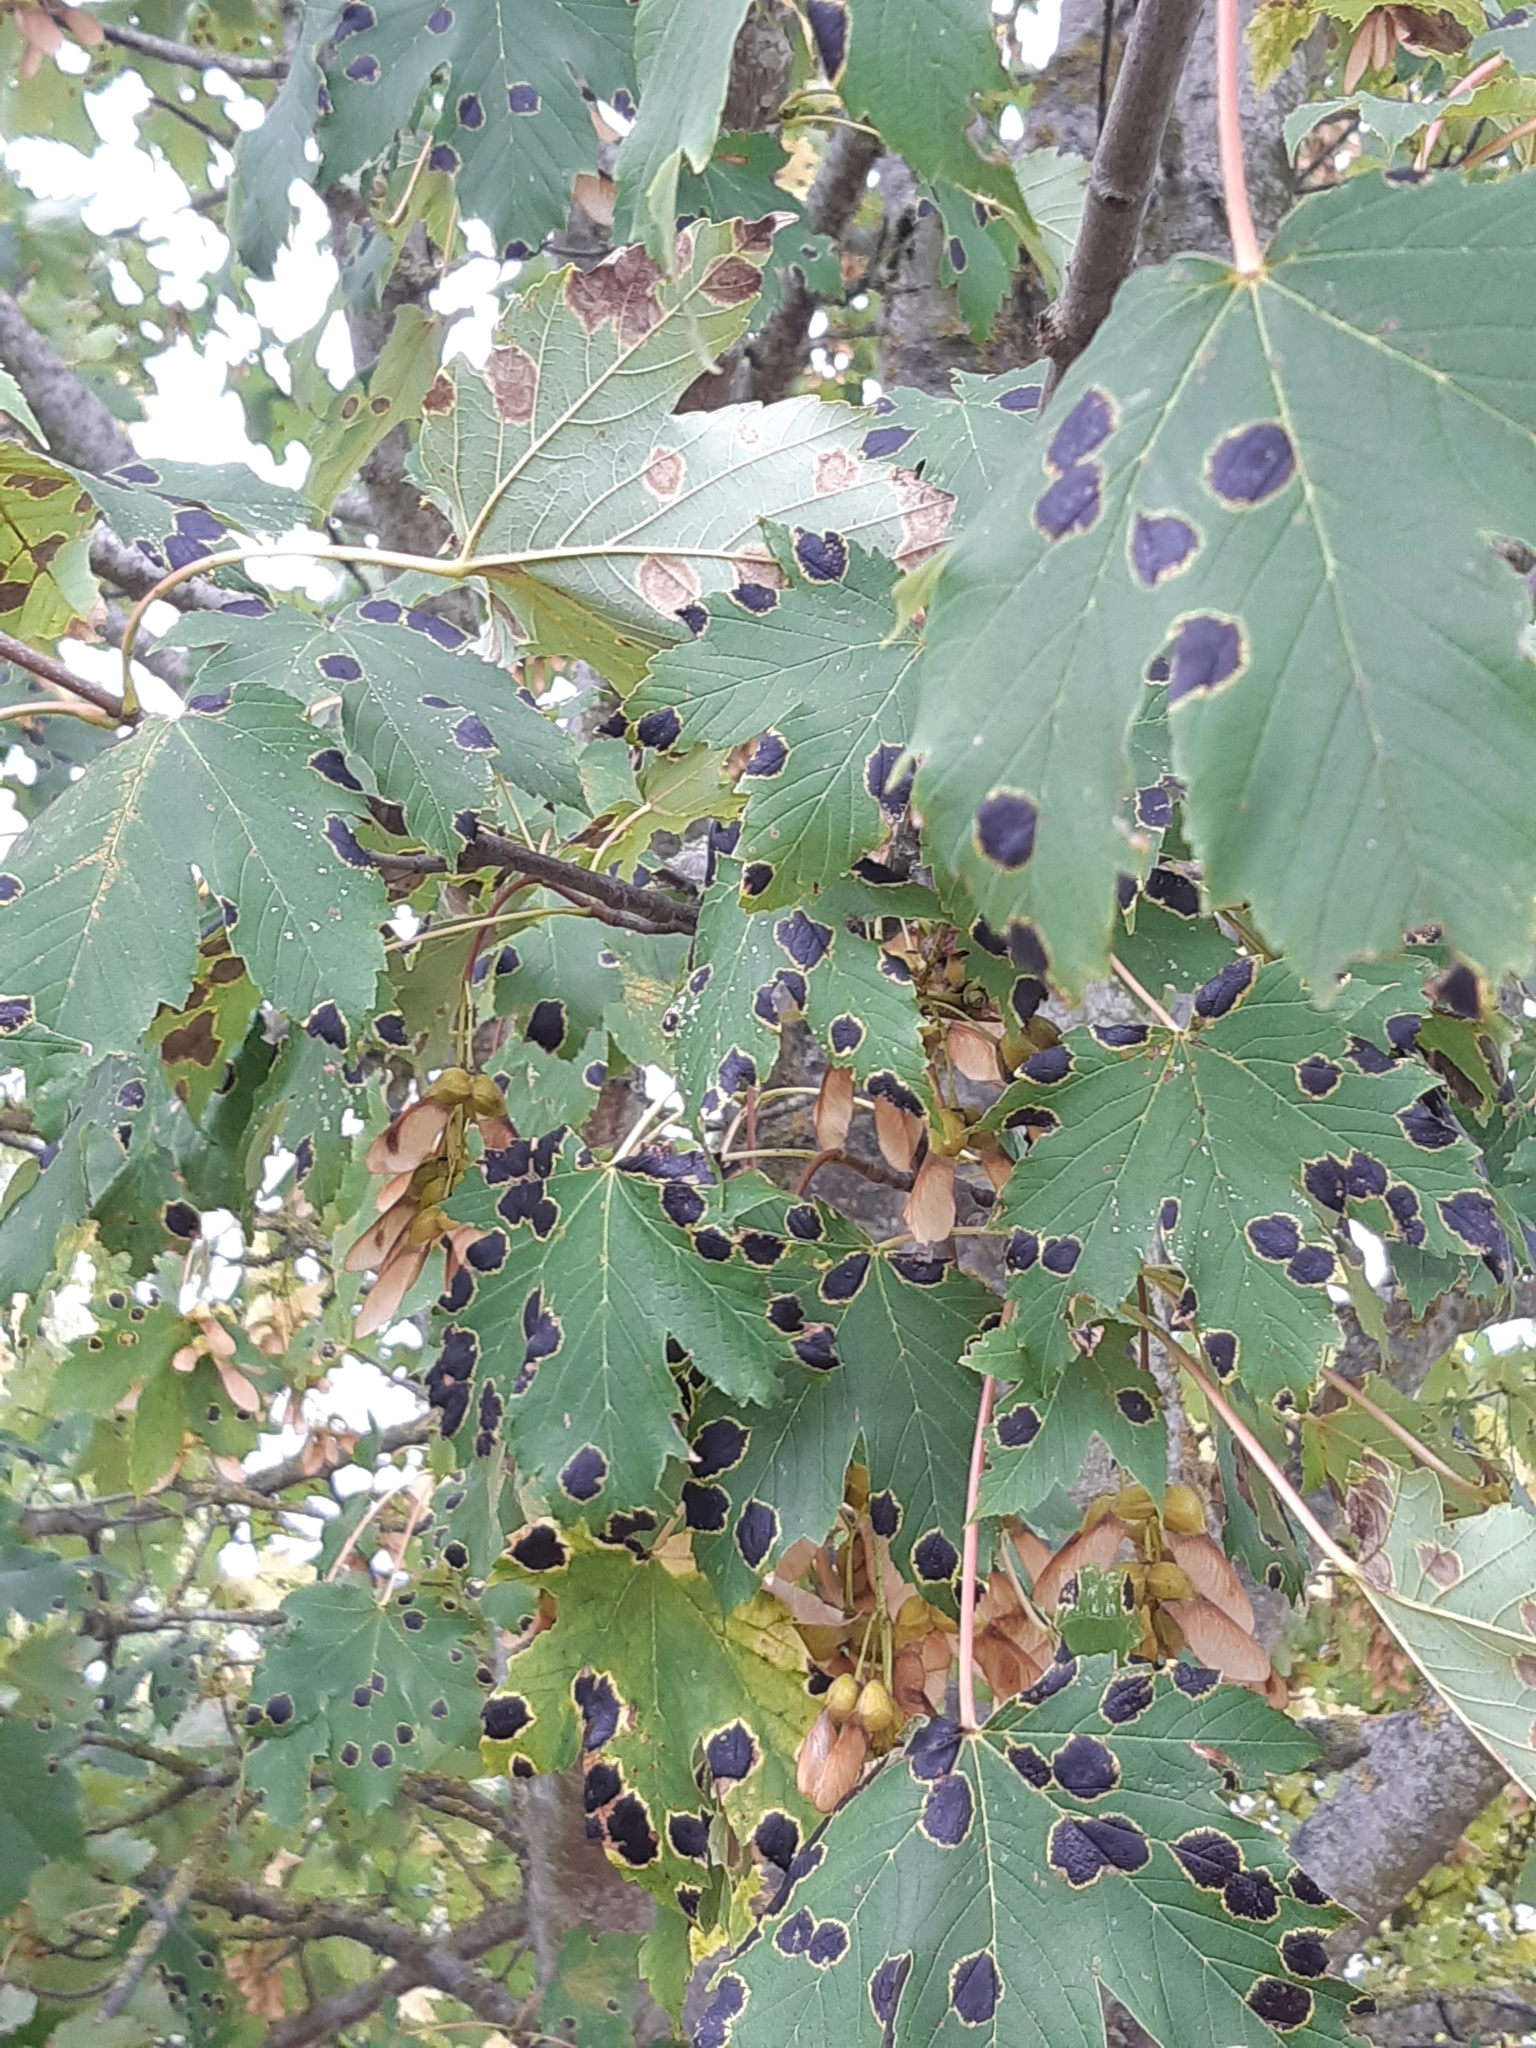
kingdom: Fungi
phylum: Ascomycota
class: Leotiomycetes
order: Rhytismatales
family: Rhytismataceae
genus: Rhytisma
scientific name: Rhytisma acerinum
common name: European tar spot
